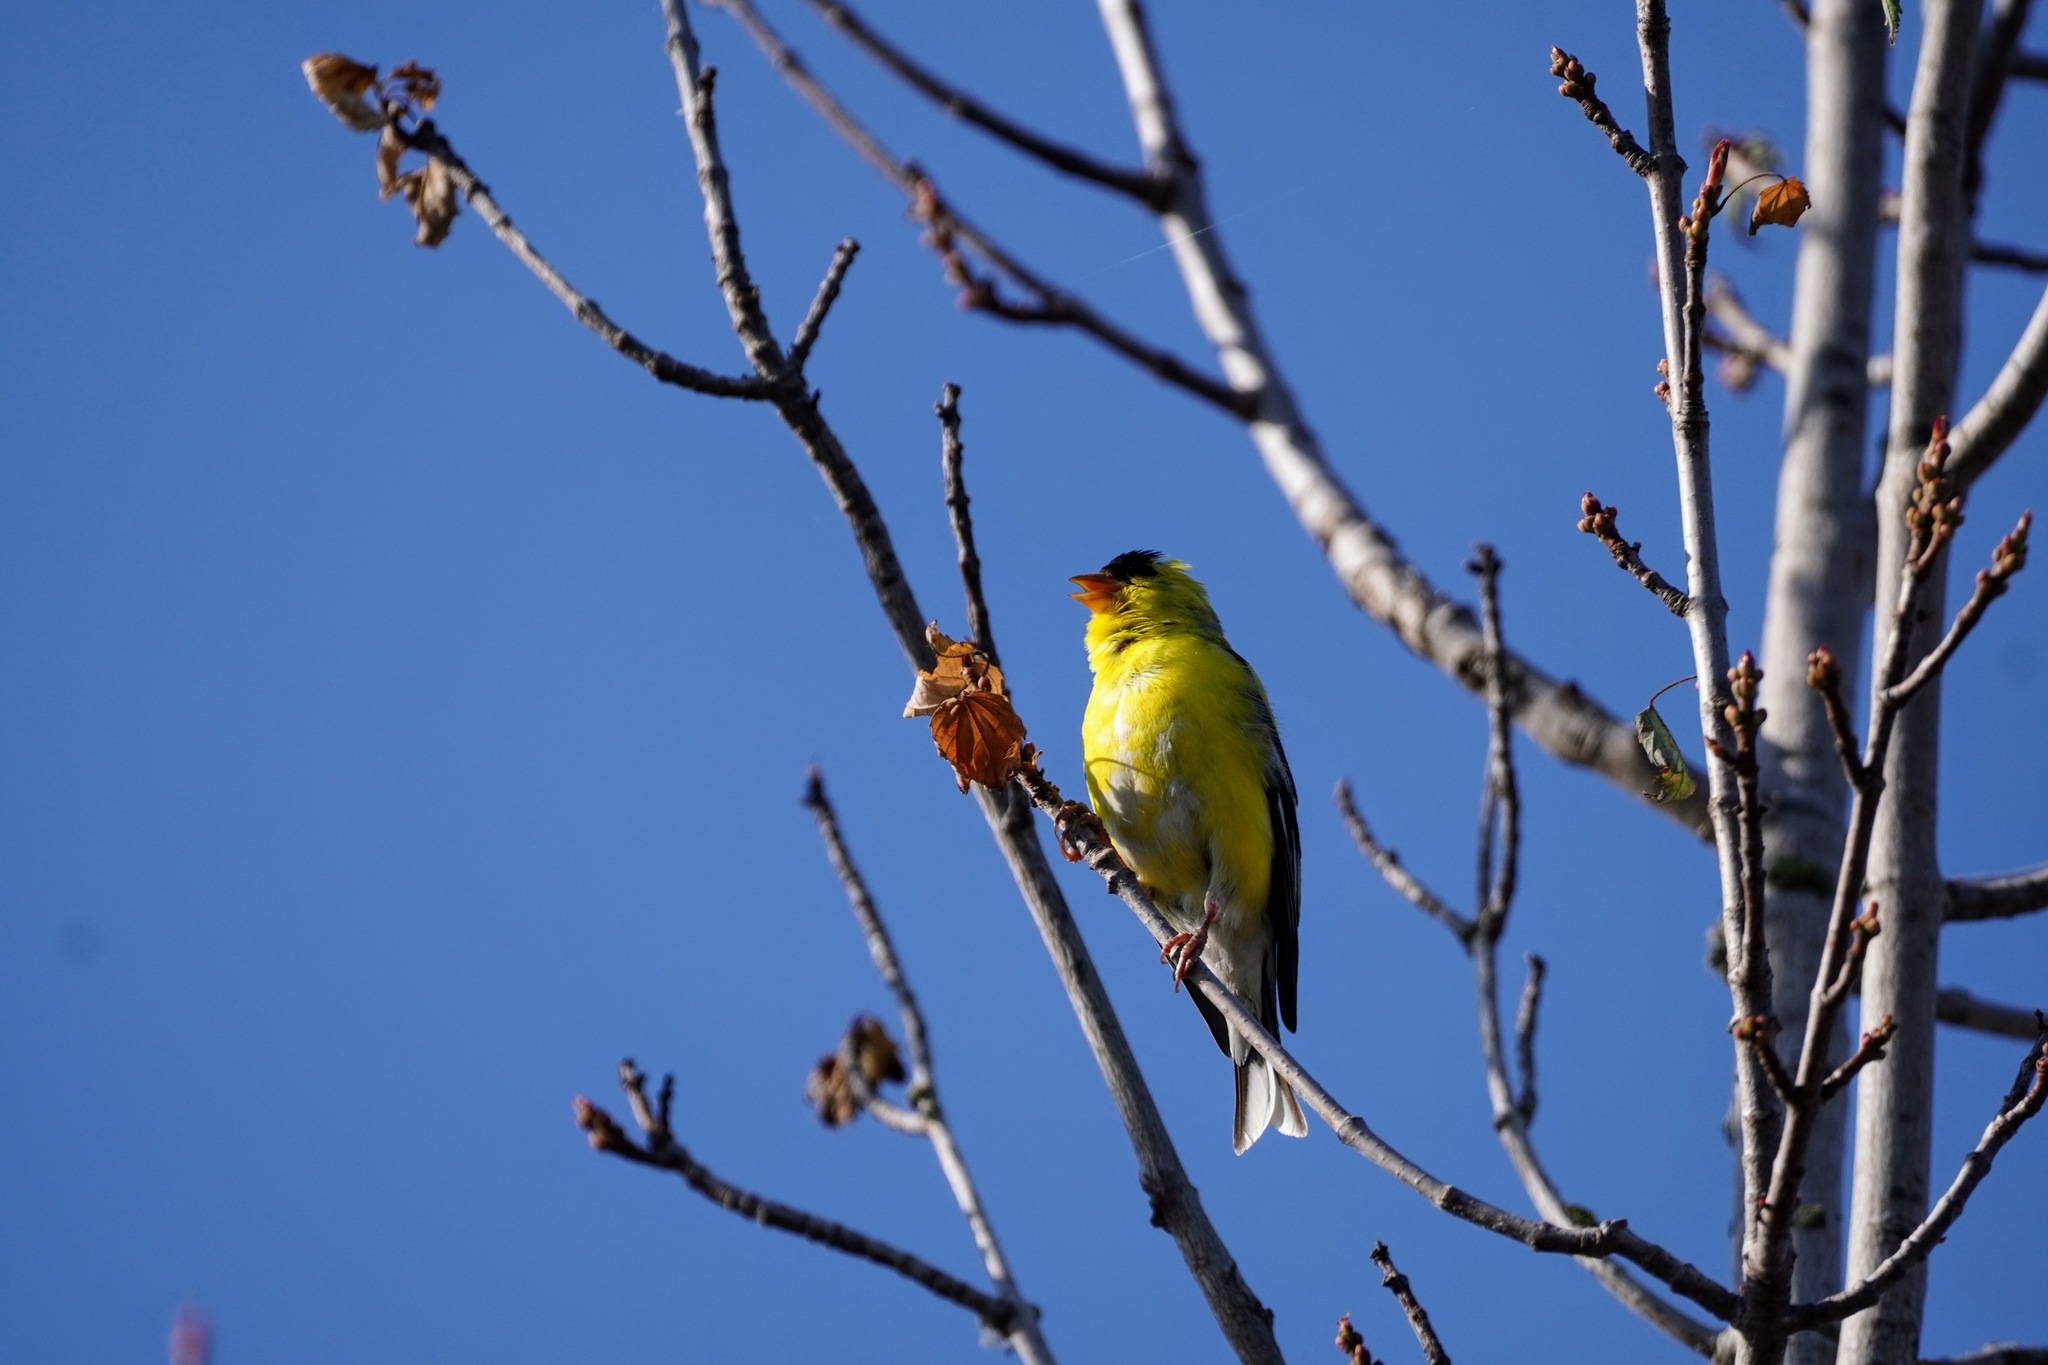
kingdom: Animalia
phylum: Chordata
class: Aves
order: Passeriformes
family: Fringillidae
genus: Spinus
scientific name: Spinus tristis
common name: American goldfinch
